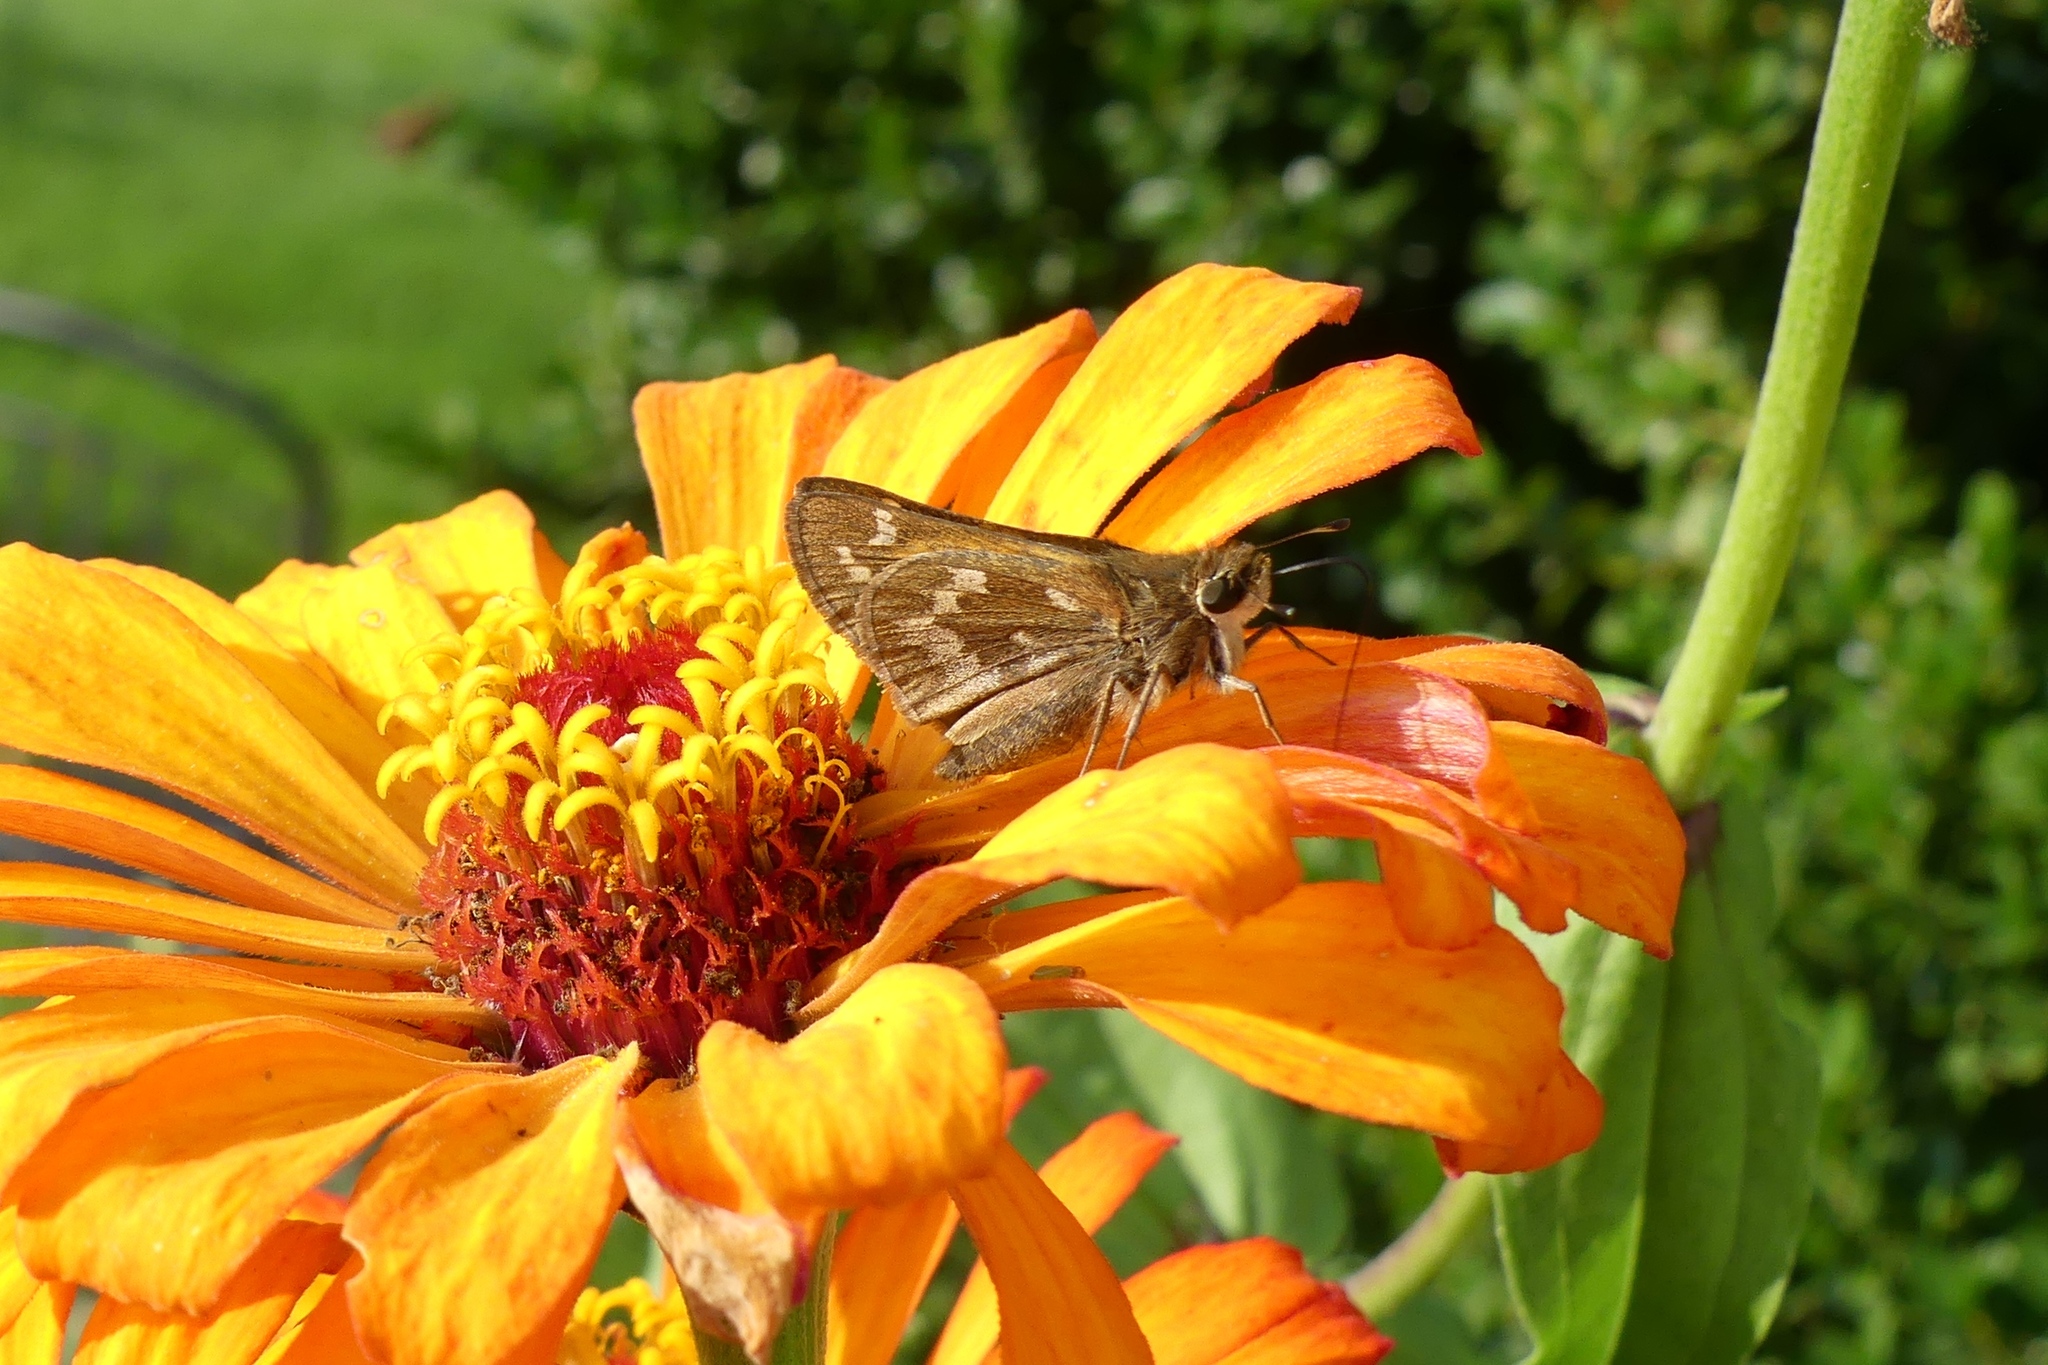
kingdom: Animalia
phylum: Arthropoda
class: Insecta
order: Lepidoptera
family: Hesperiidae
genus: Atalopedes
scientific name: Atalopedes
